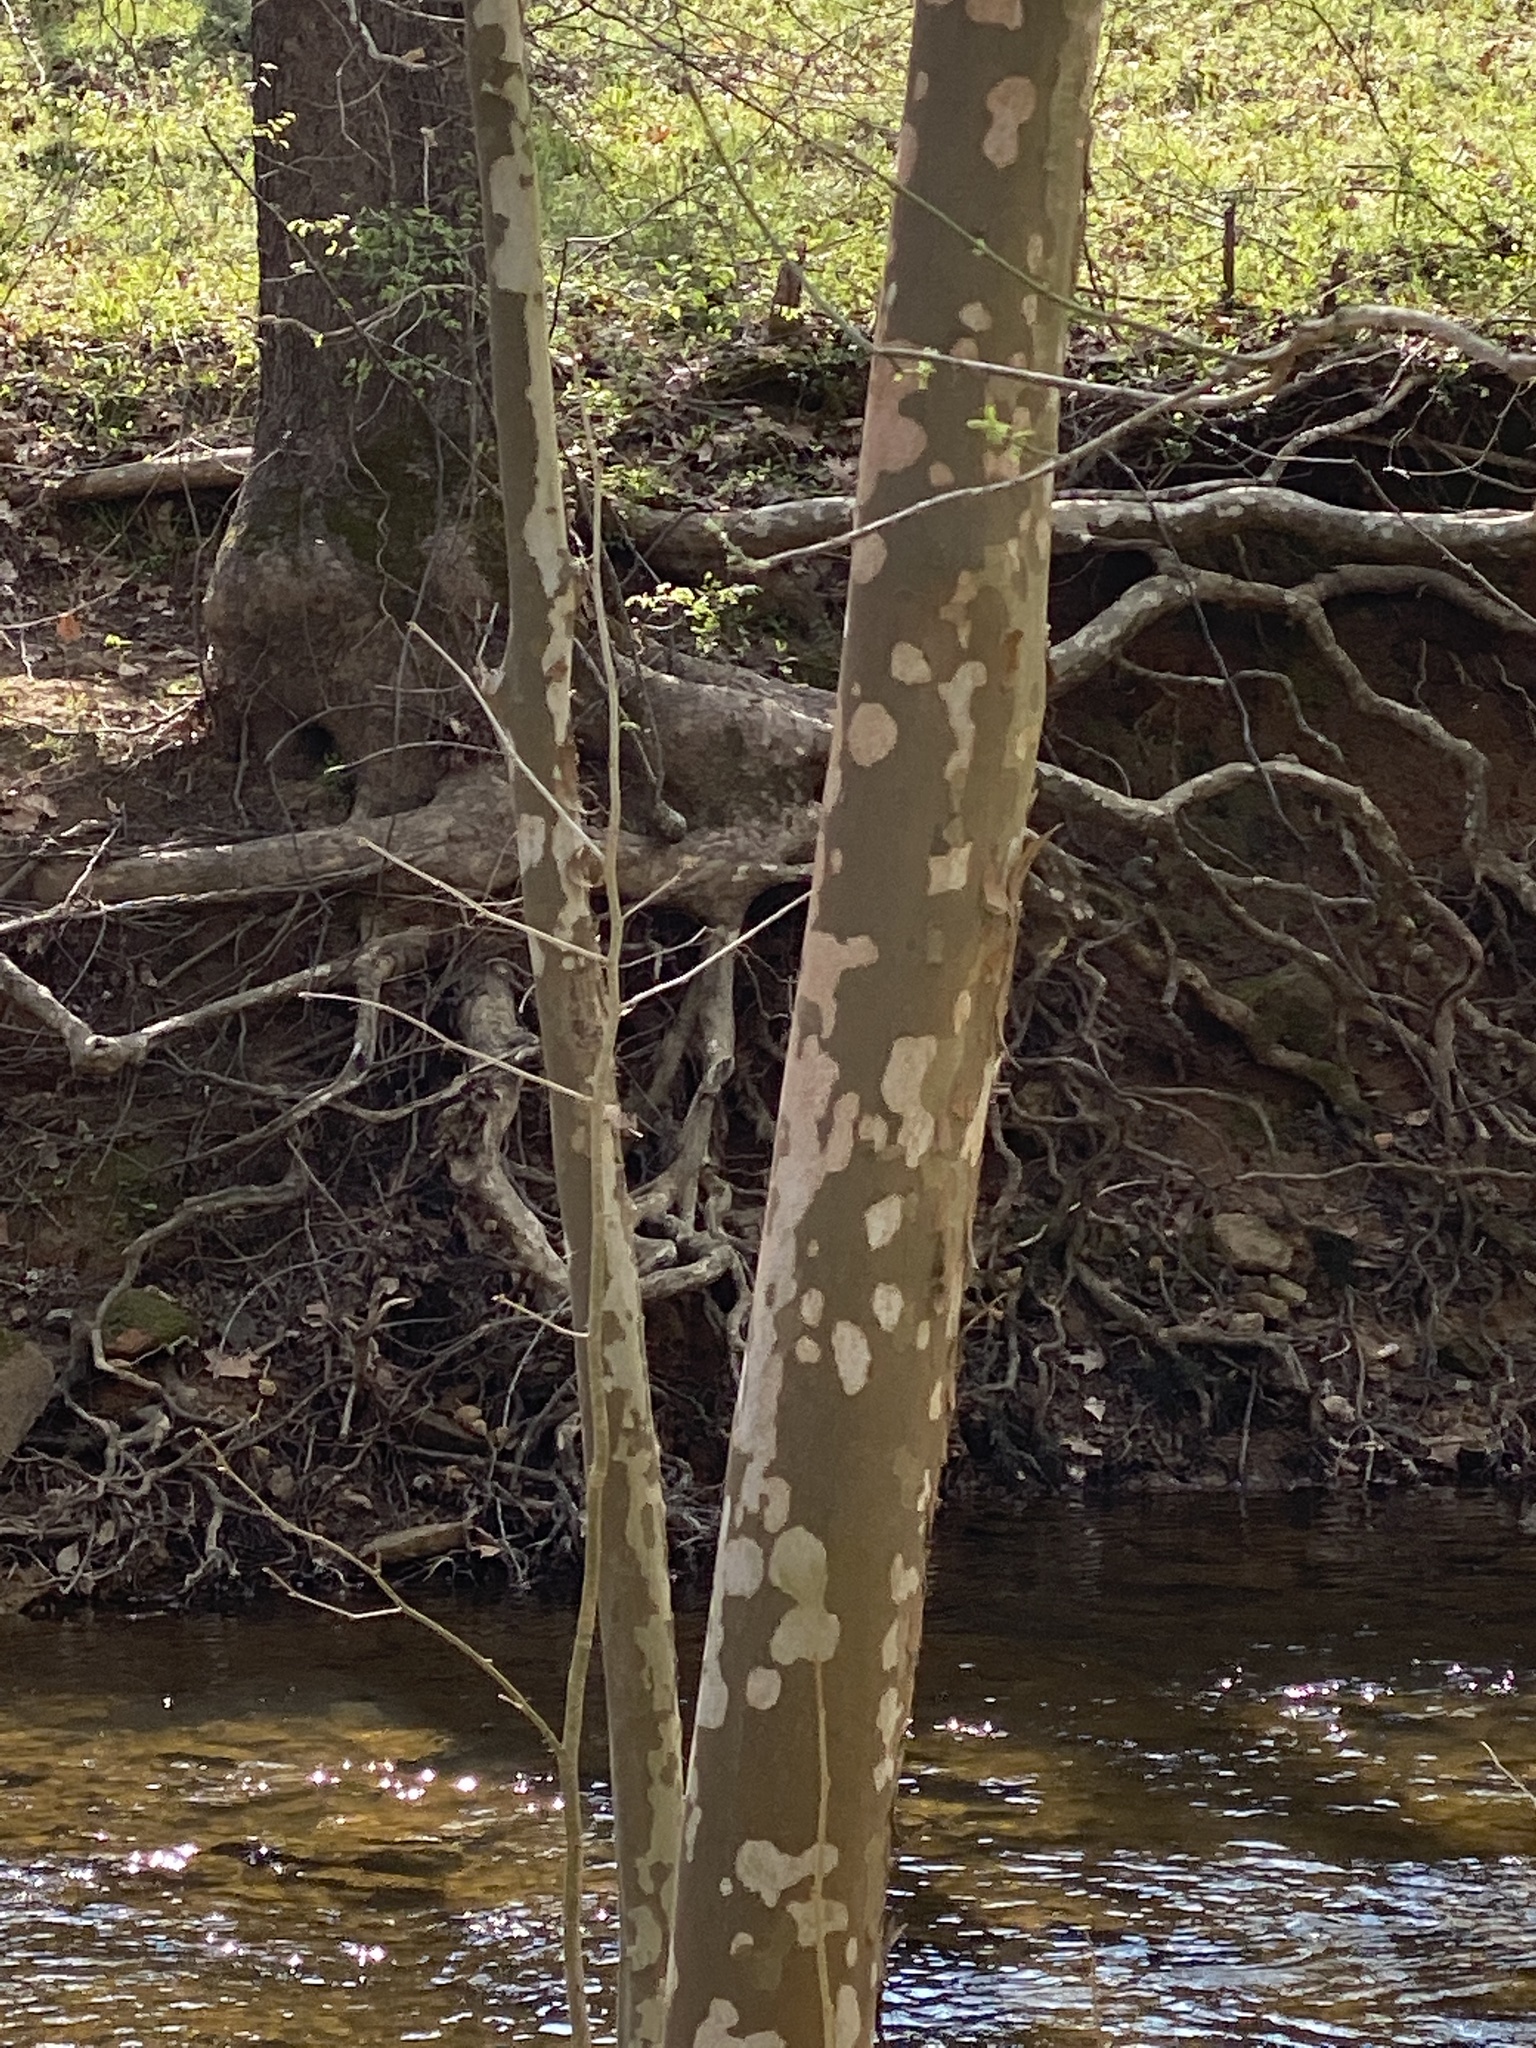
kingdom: Plantae
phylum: Tracheophyta
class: Magnoliopsida
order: Proteales
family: Platanaceae
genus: Platanus
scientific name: Platanus occidentalis
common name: American sycamore
